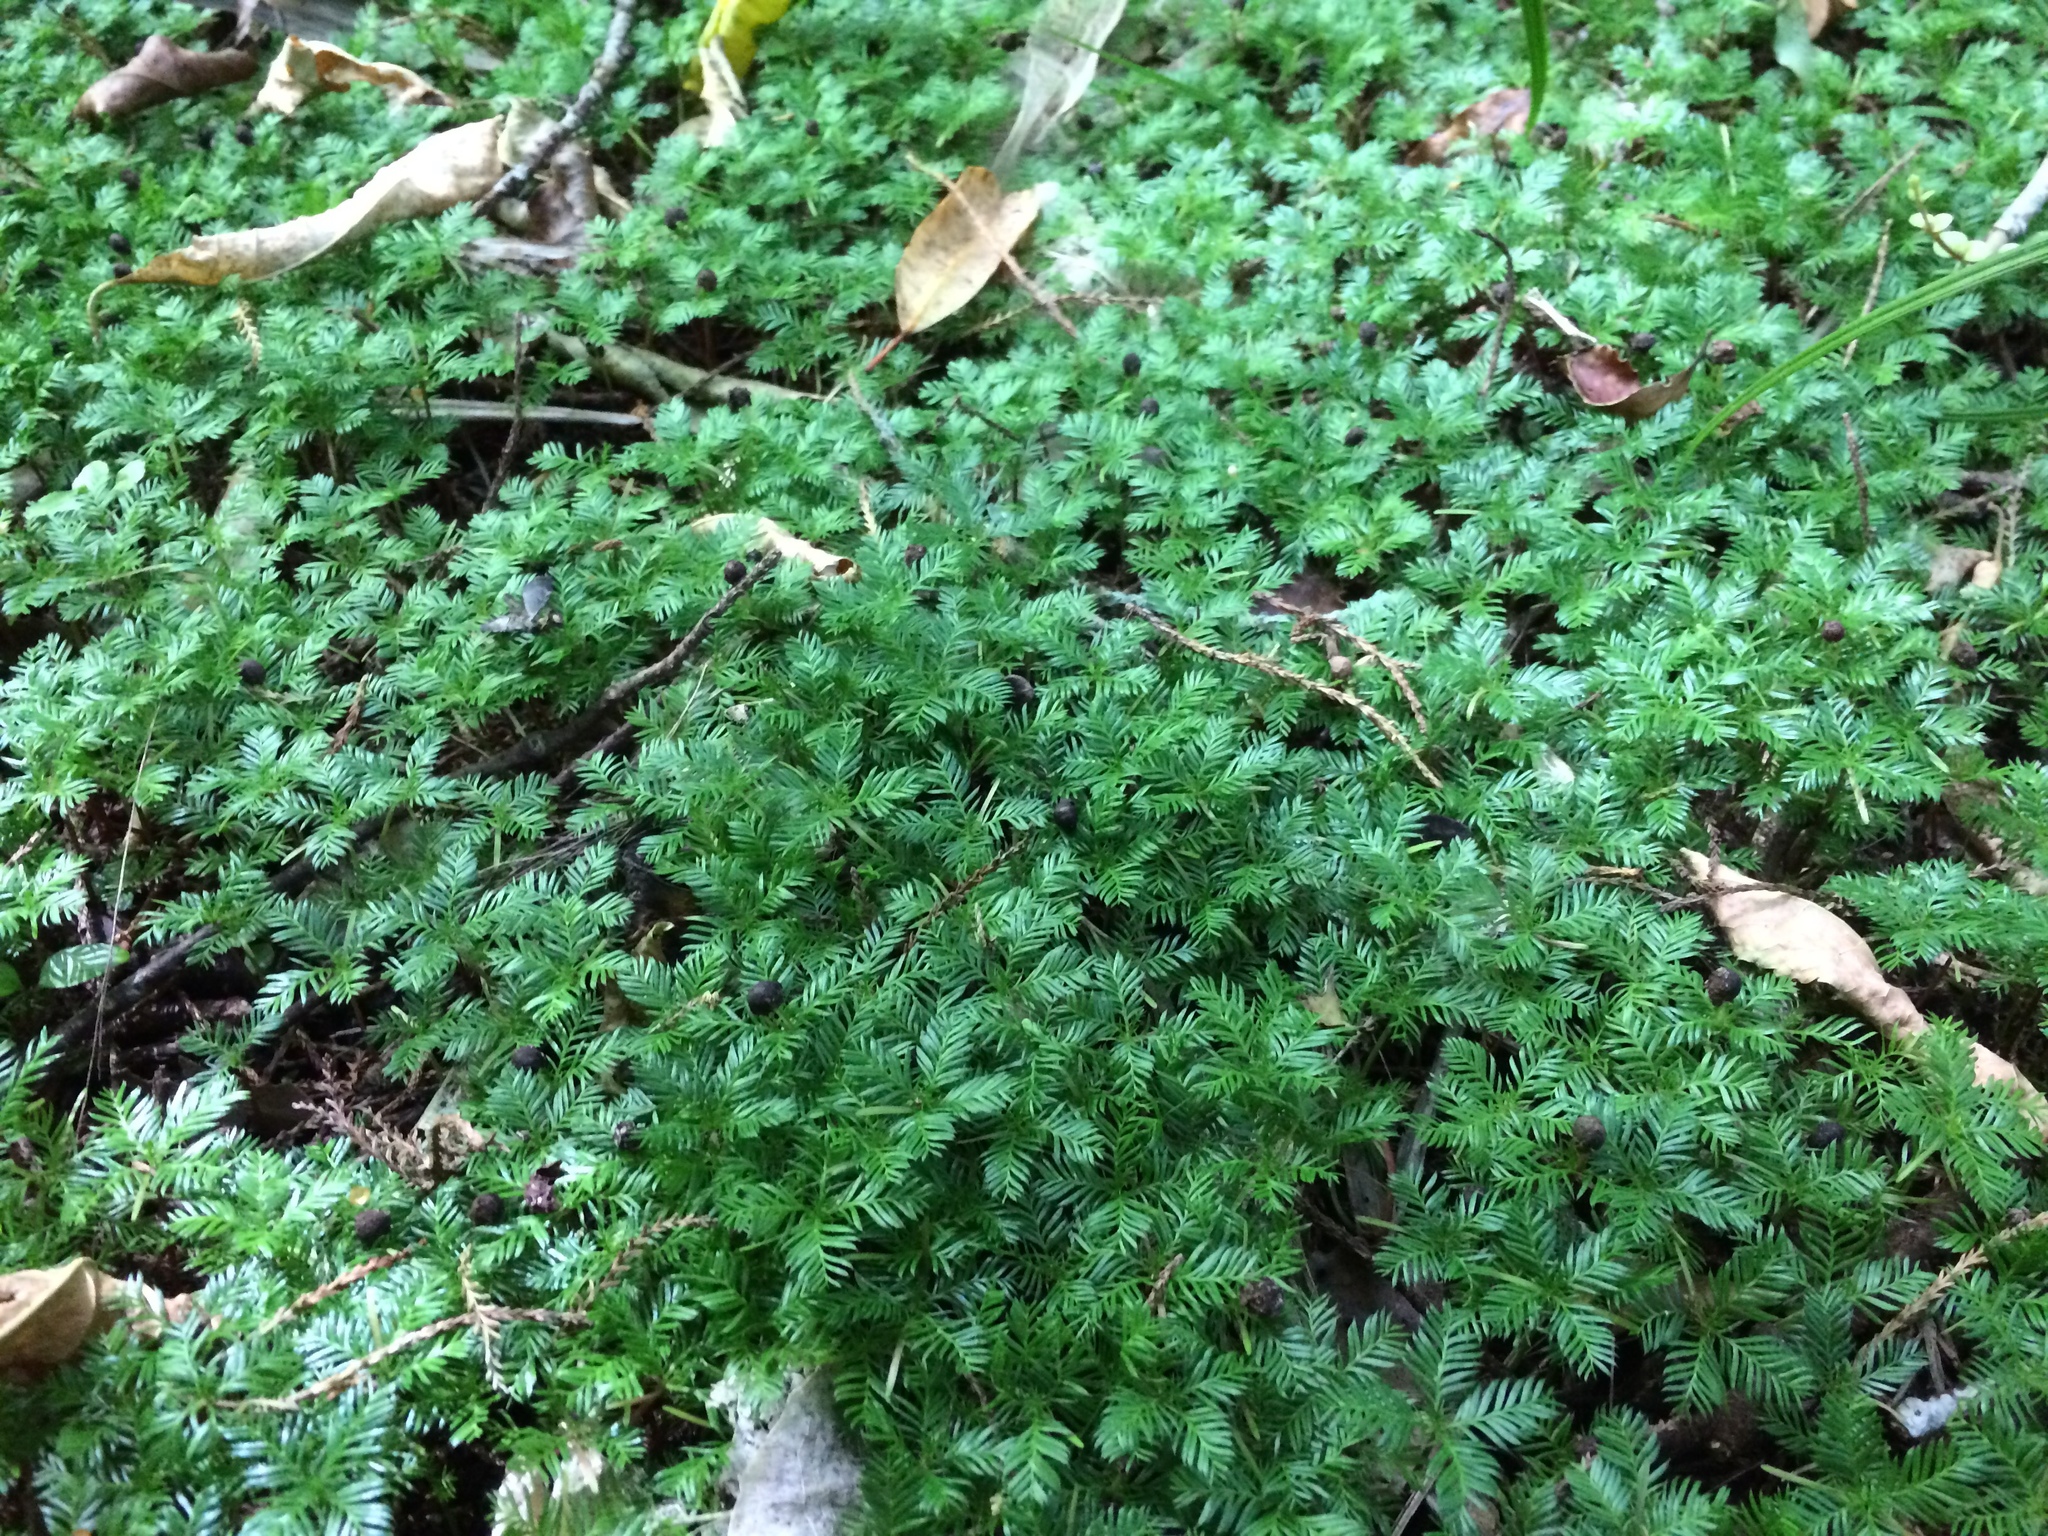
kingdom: Plantae
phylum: Tracheophyta
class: Pinopsida
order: Pinales
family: Podocarpaceae
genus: Dacrycarpus
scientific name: Dacrycarpus dacrydioides
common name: White pine
